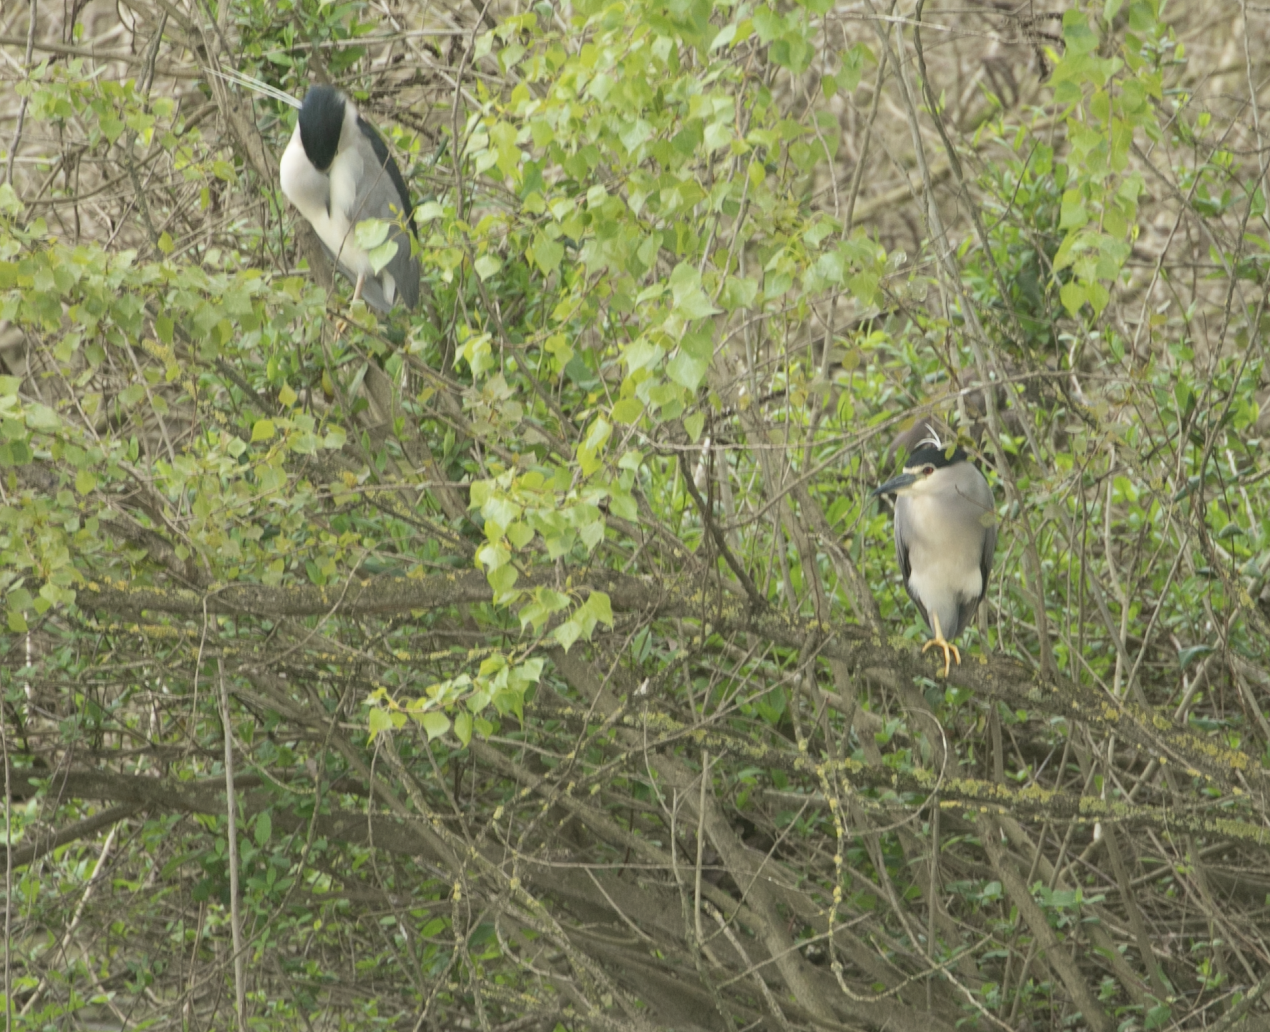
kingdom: Animalia
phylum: Chordata
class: Aves
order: Pelecaniformes
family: Ardeidae
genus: Nycticorax
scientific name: Nycticorax nycticorax
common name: Black-crowned night heron
